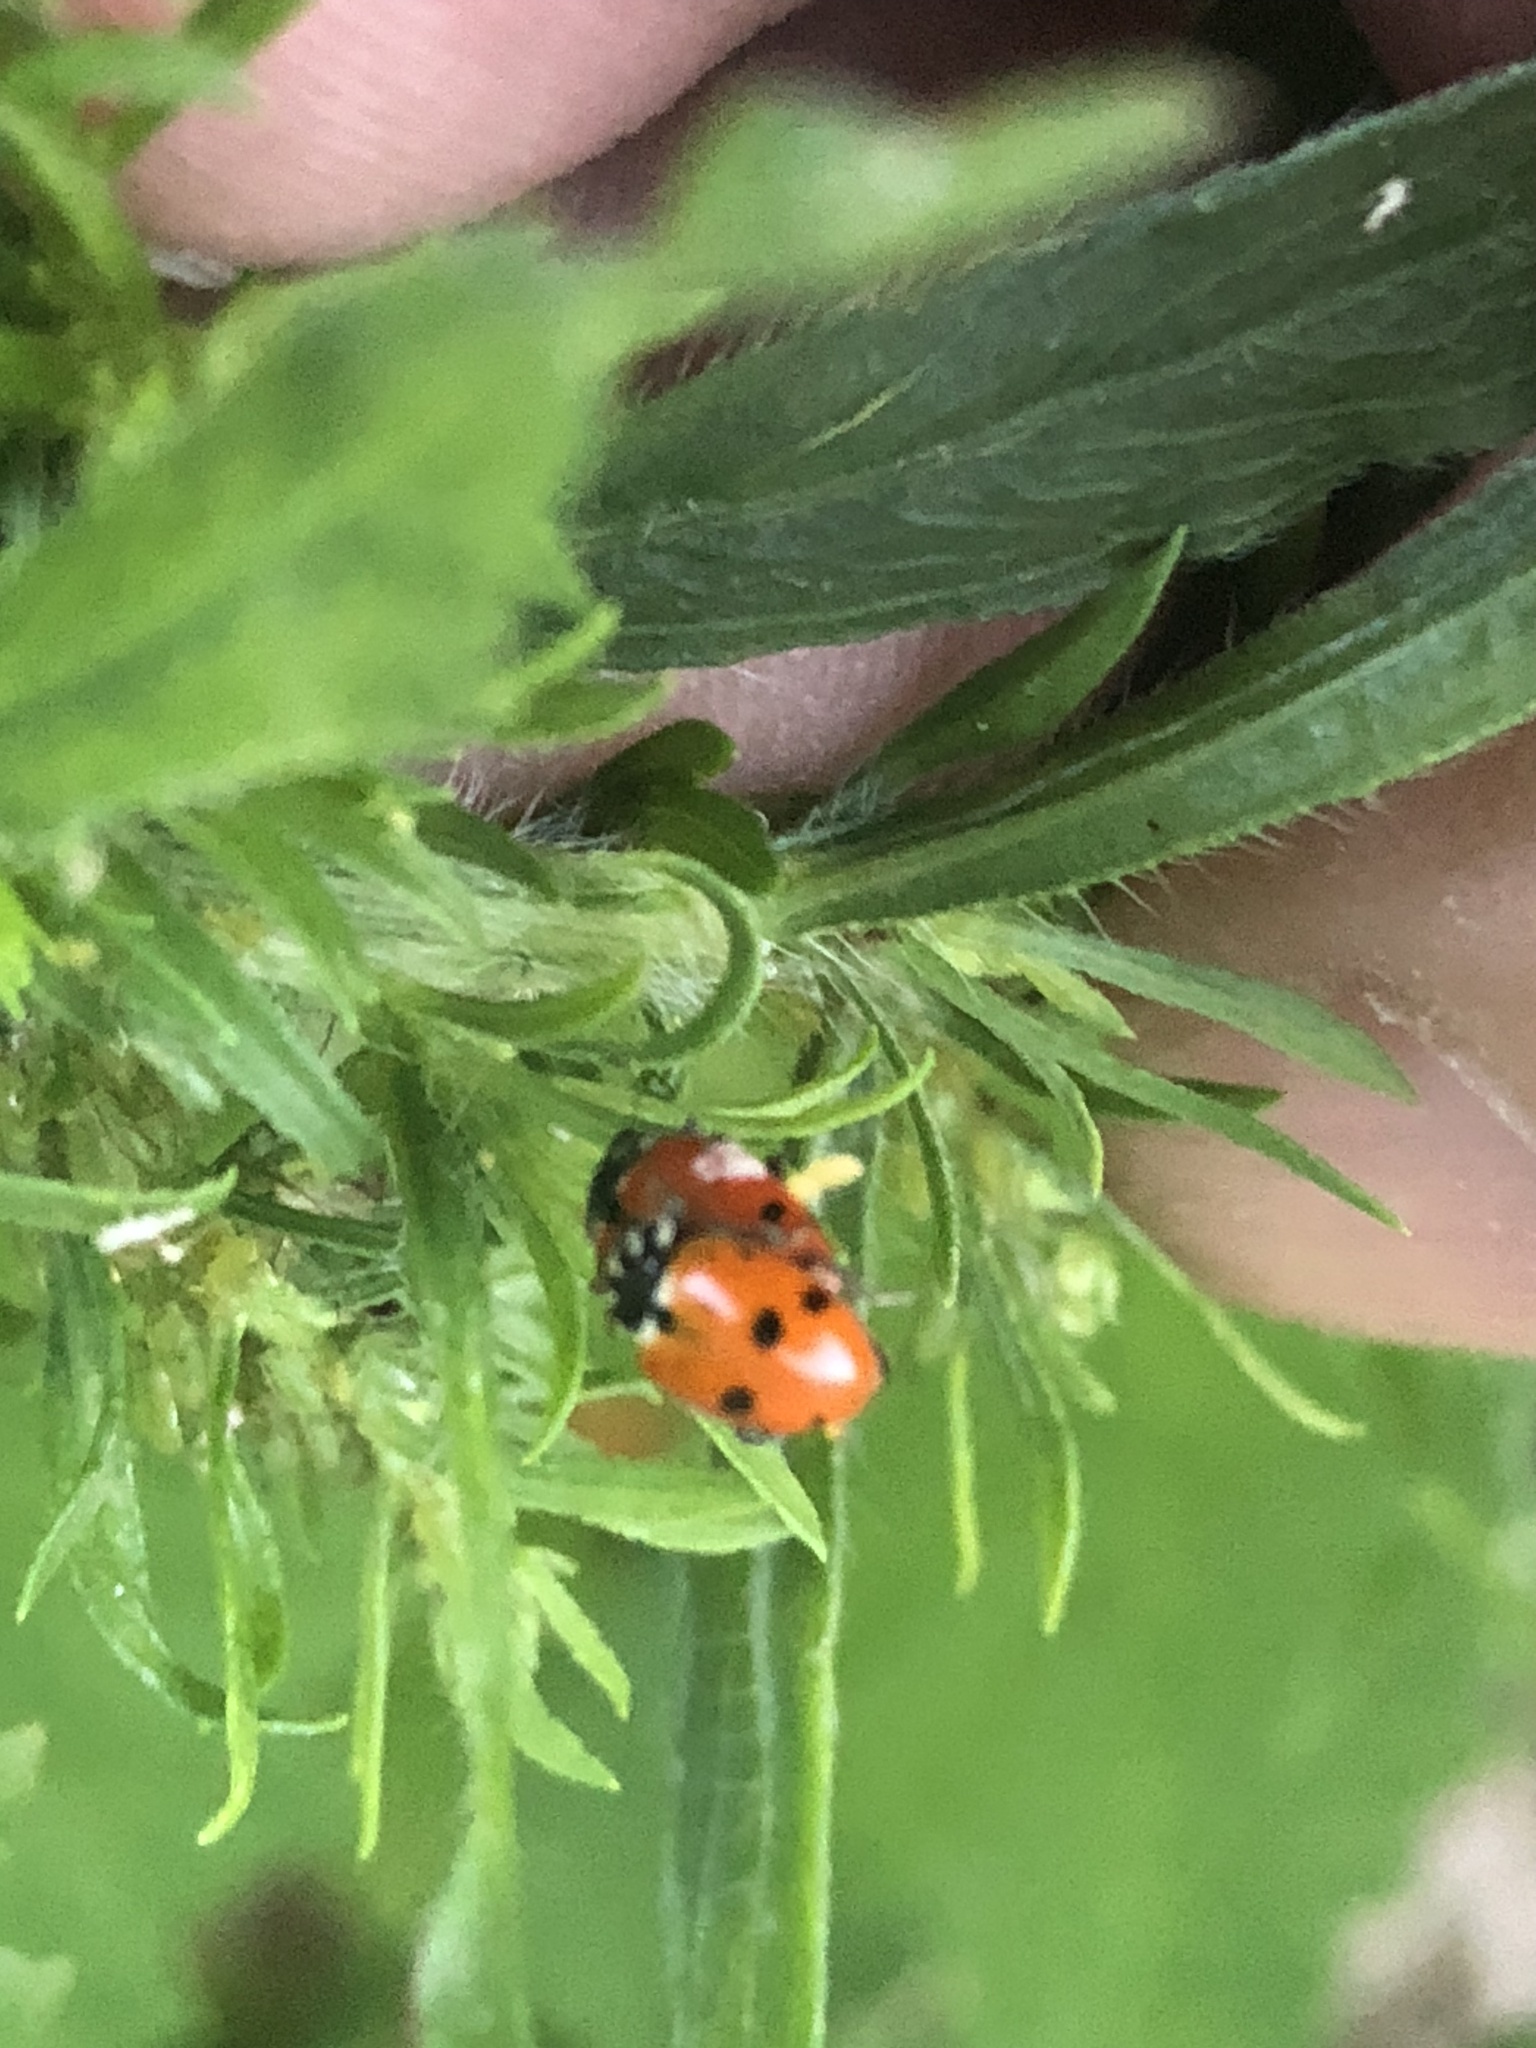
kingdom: Animalia
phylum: Arthropoda
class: Insecta
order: Coleoptera
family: Coccinellidae
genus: Hippodamia
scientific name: Hippodamia variegata
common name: Ladybird beetle
